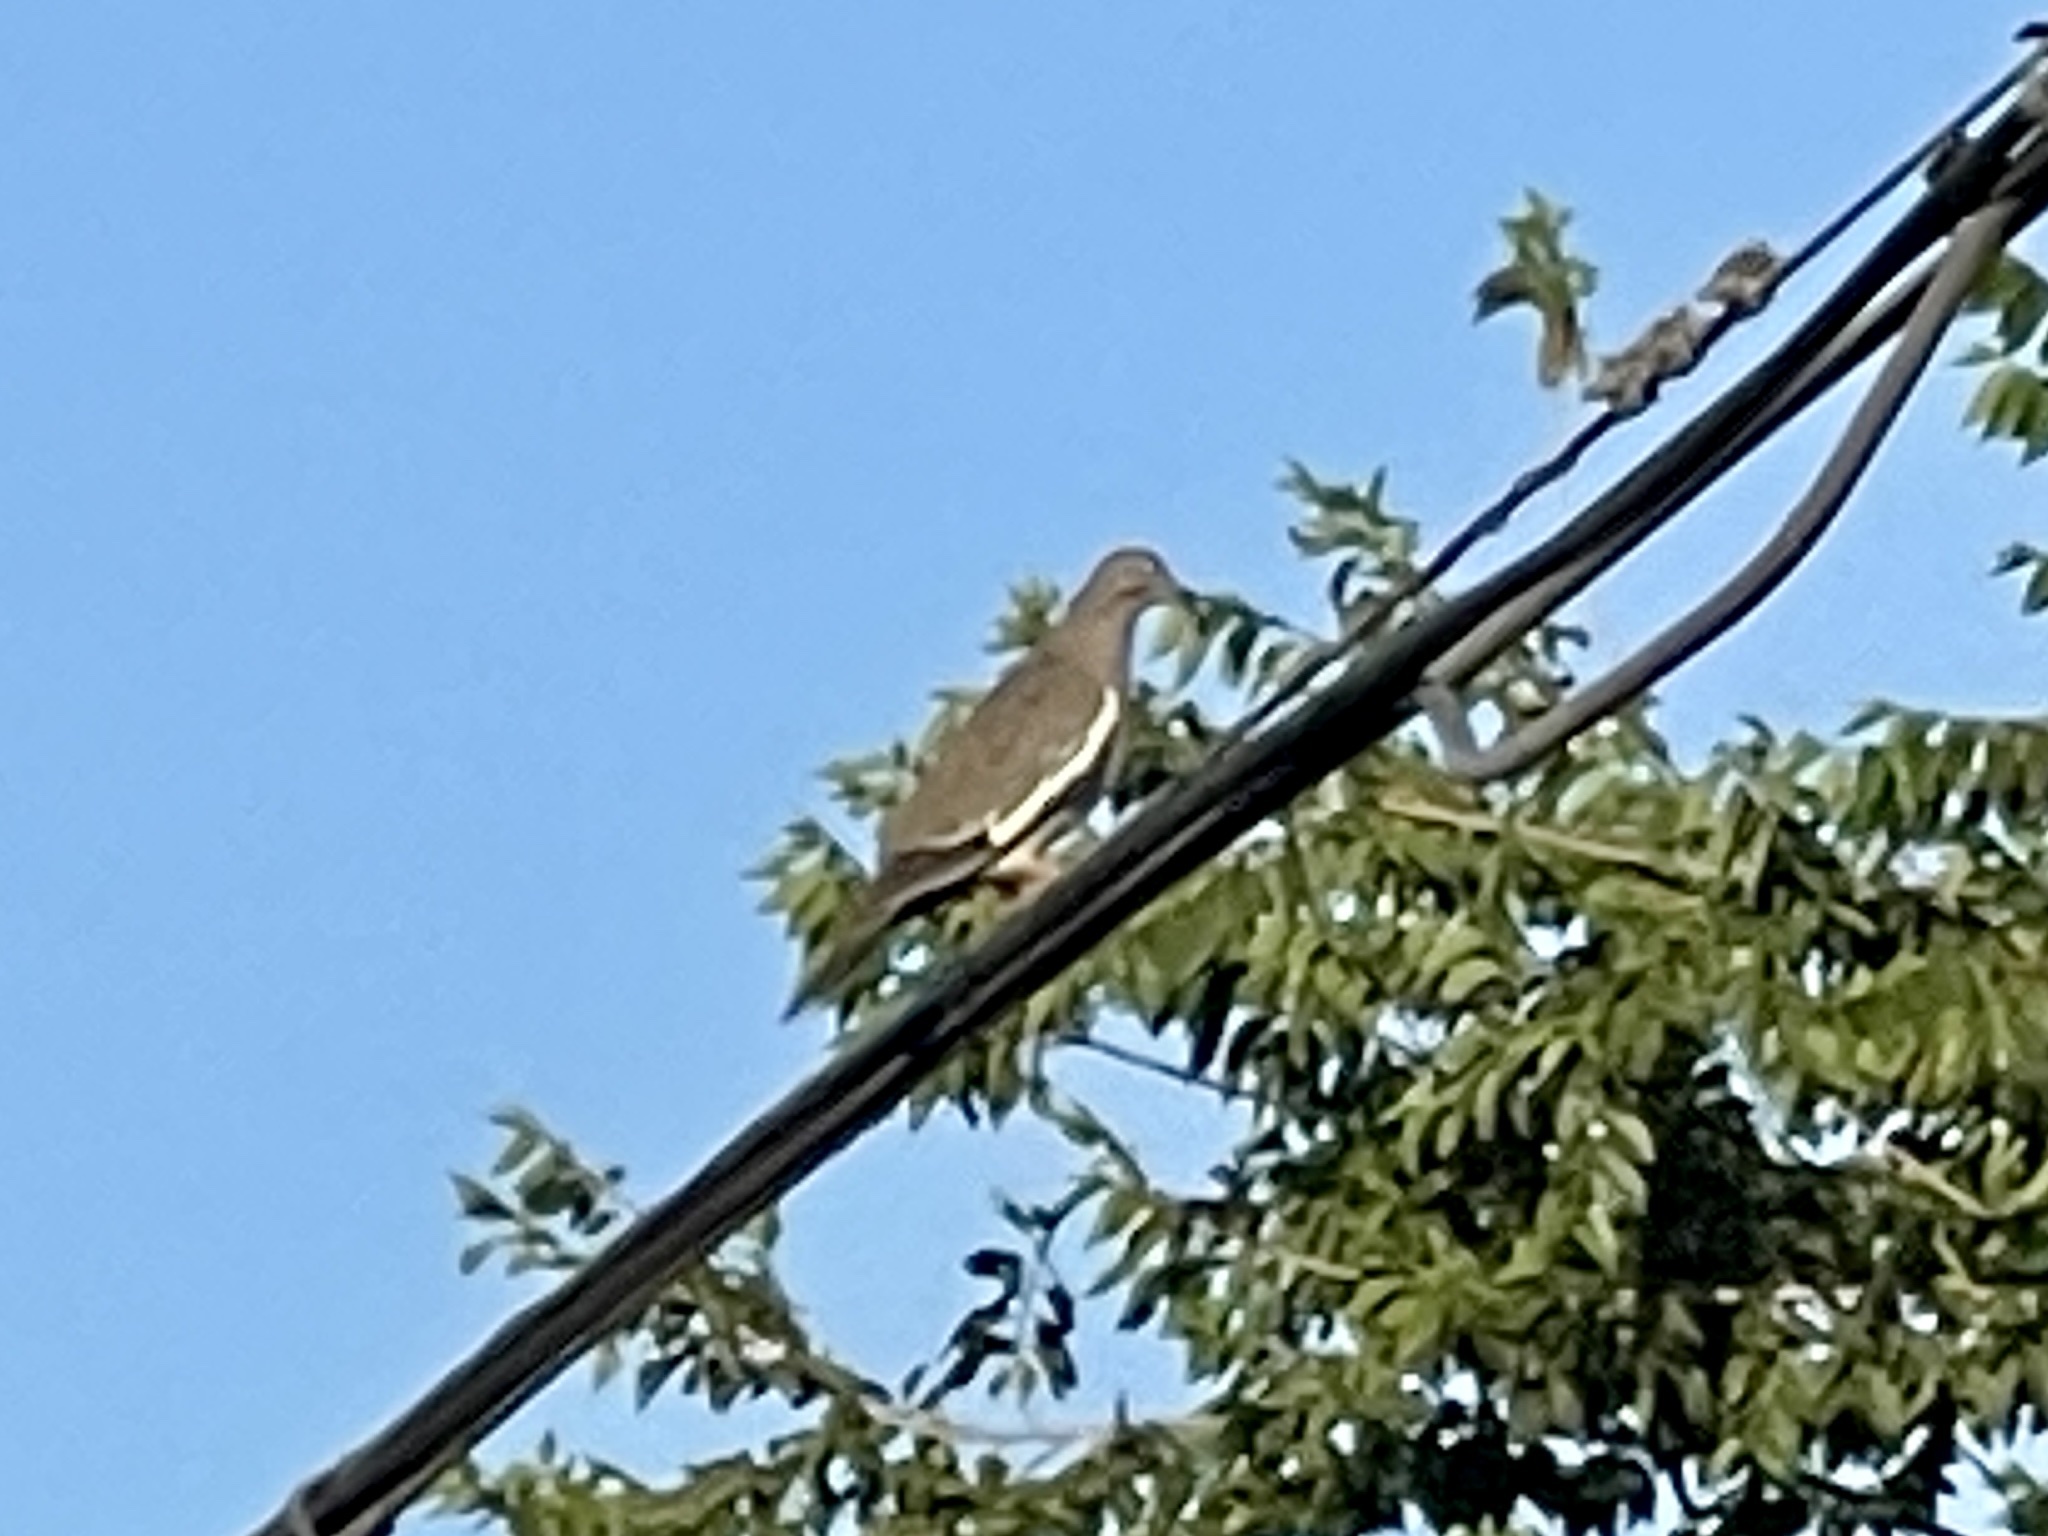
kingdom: Animalia
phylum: Chordata
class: Aves
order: Columbiformes
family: Columbidae
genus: Zenaida
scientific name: Zenaida asiatica
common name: White-winged dove
